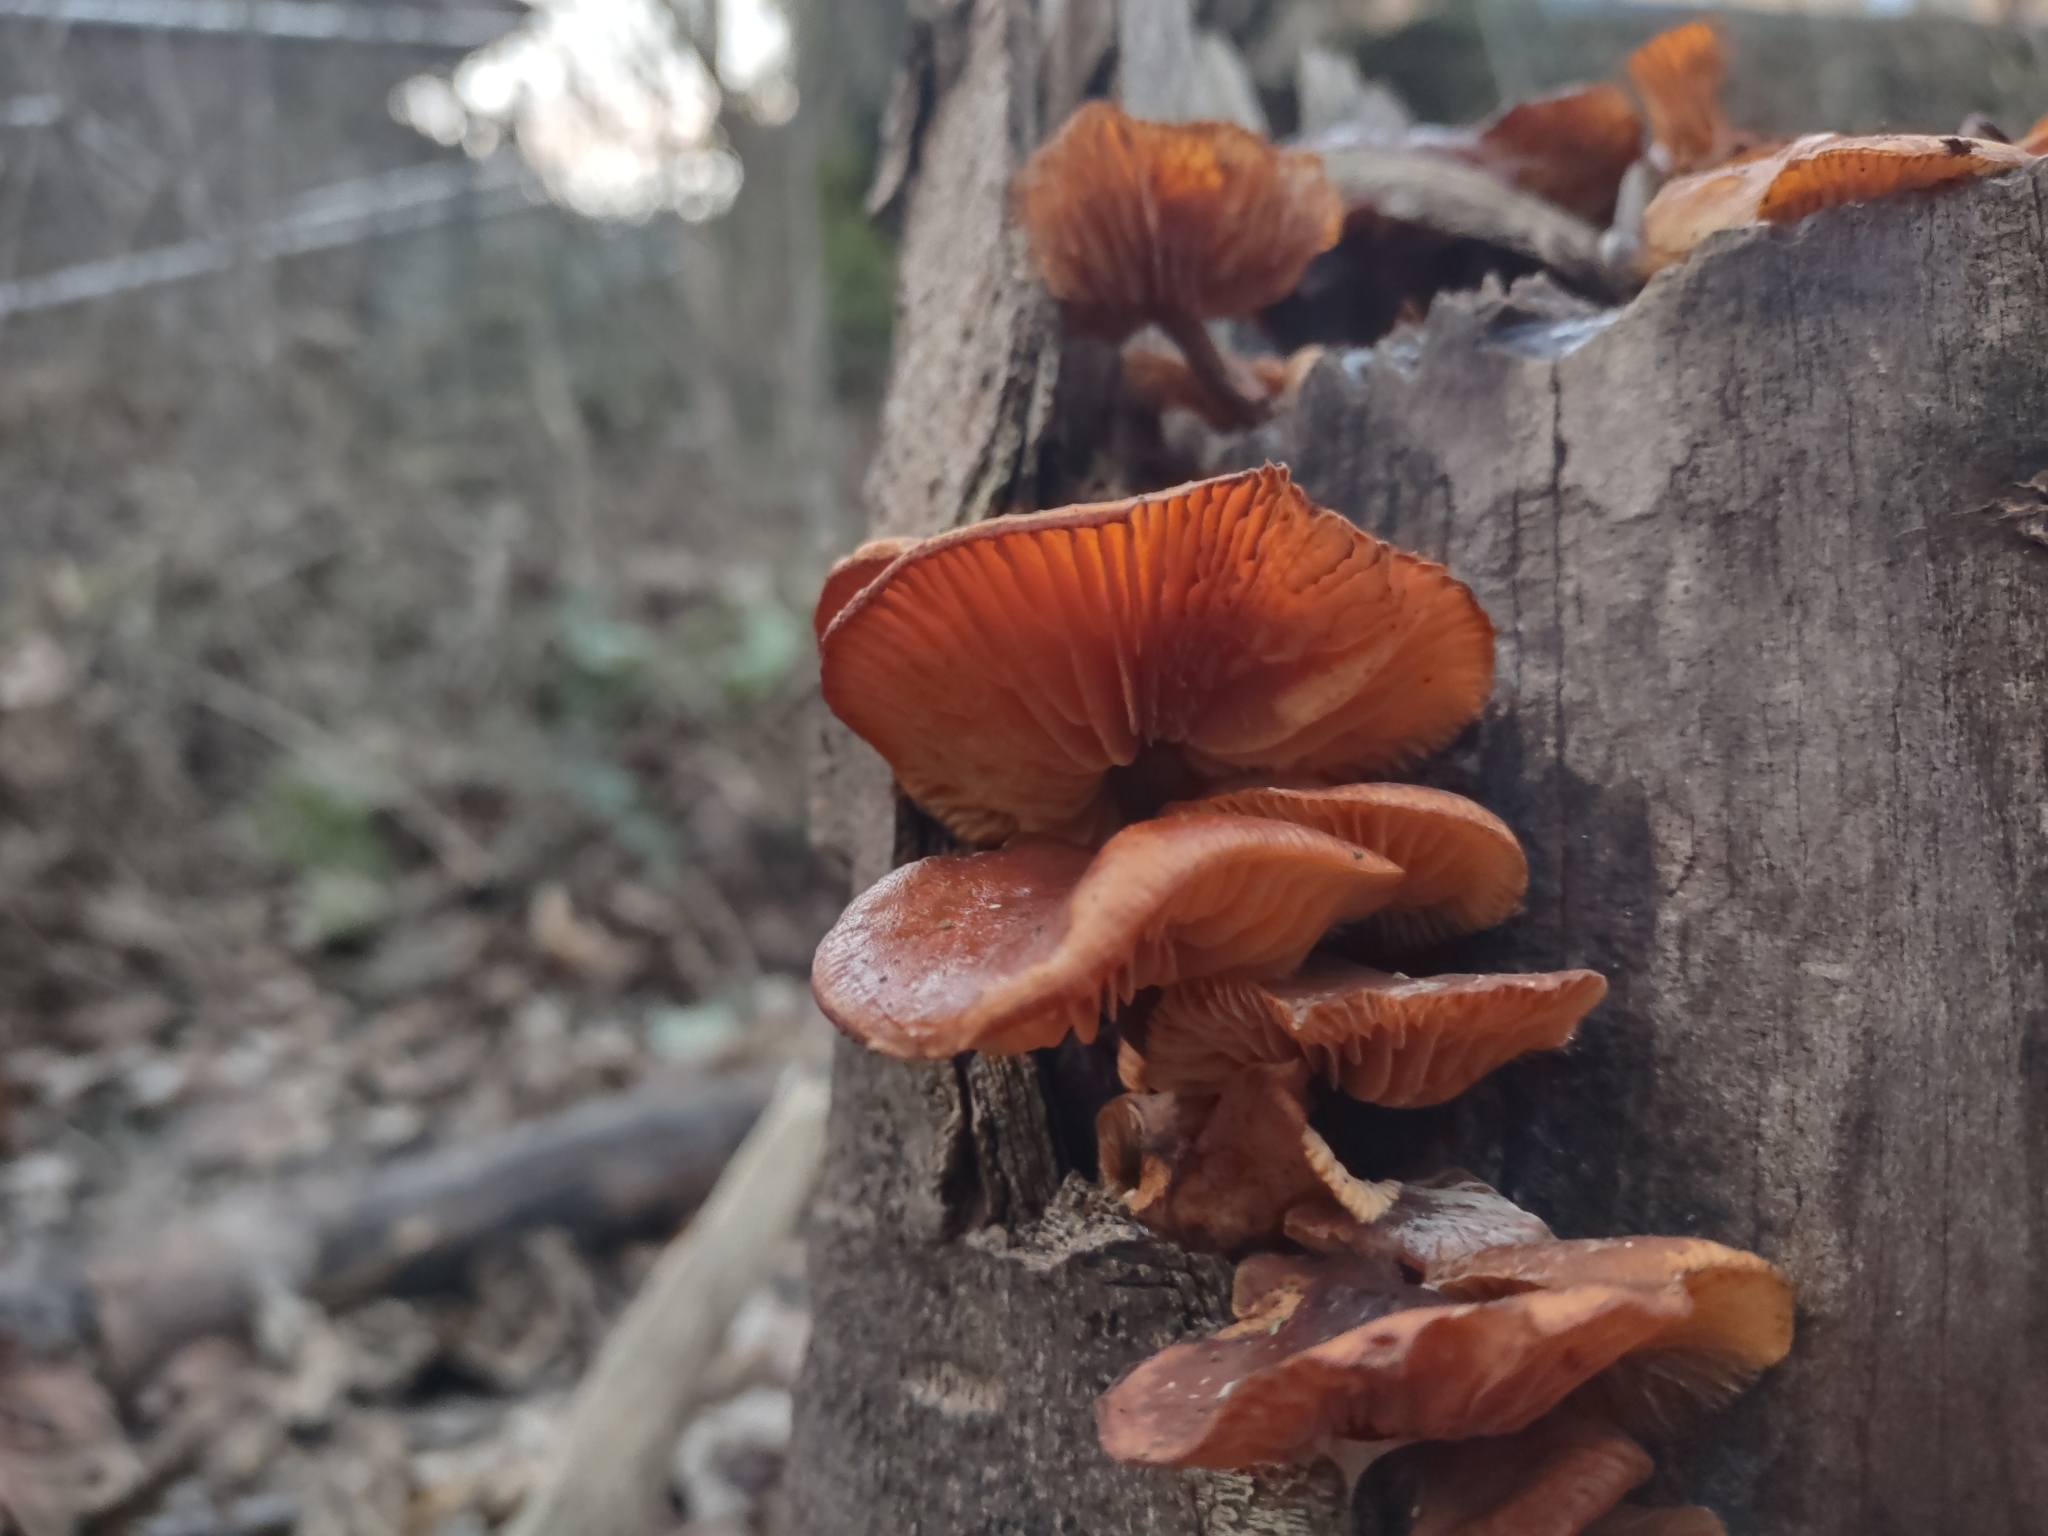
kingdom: Fungi
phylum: Basidiomycota
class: Agaricomycetes
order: Agaricales
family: Physalacriaceae
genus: Flammulina
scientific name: Flammulina
